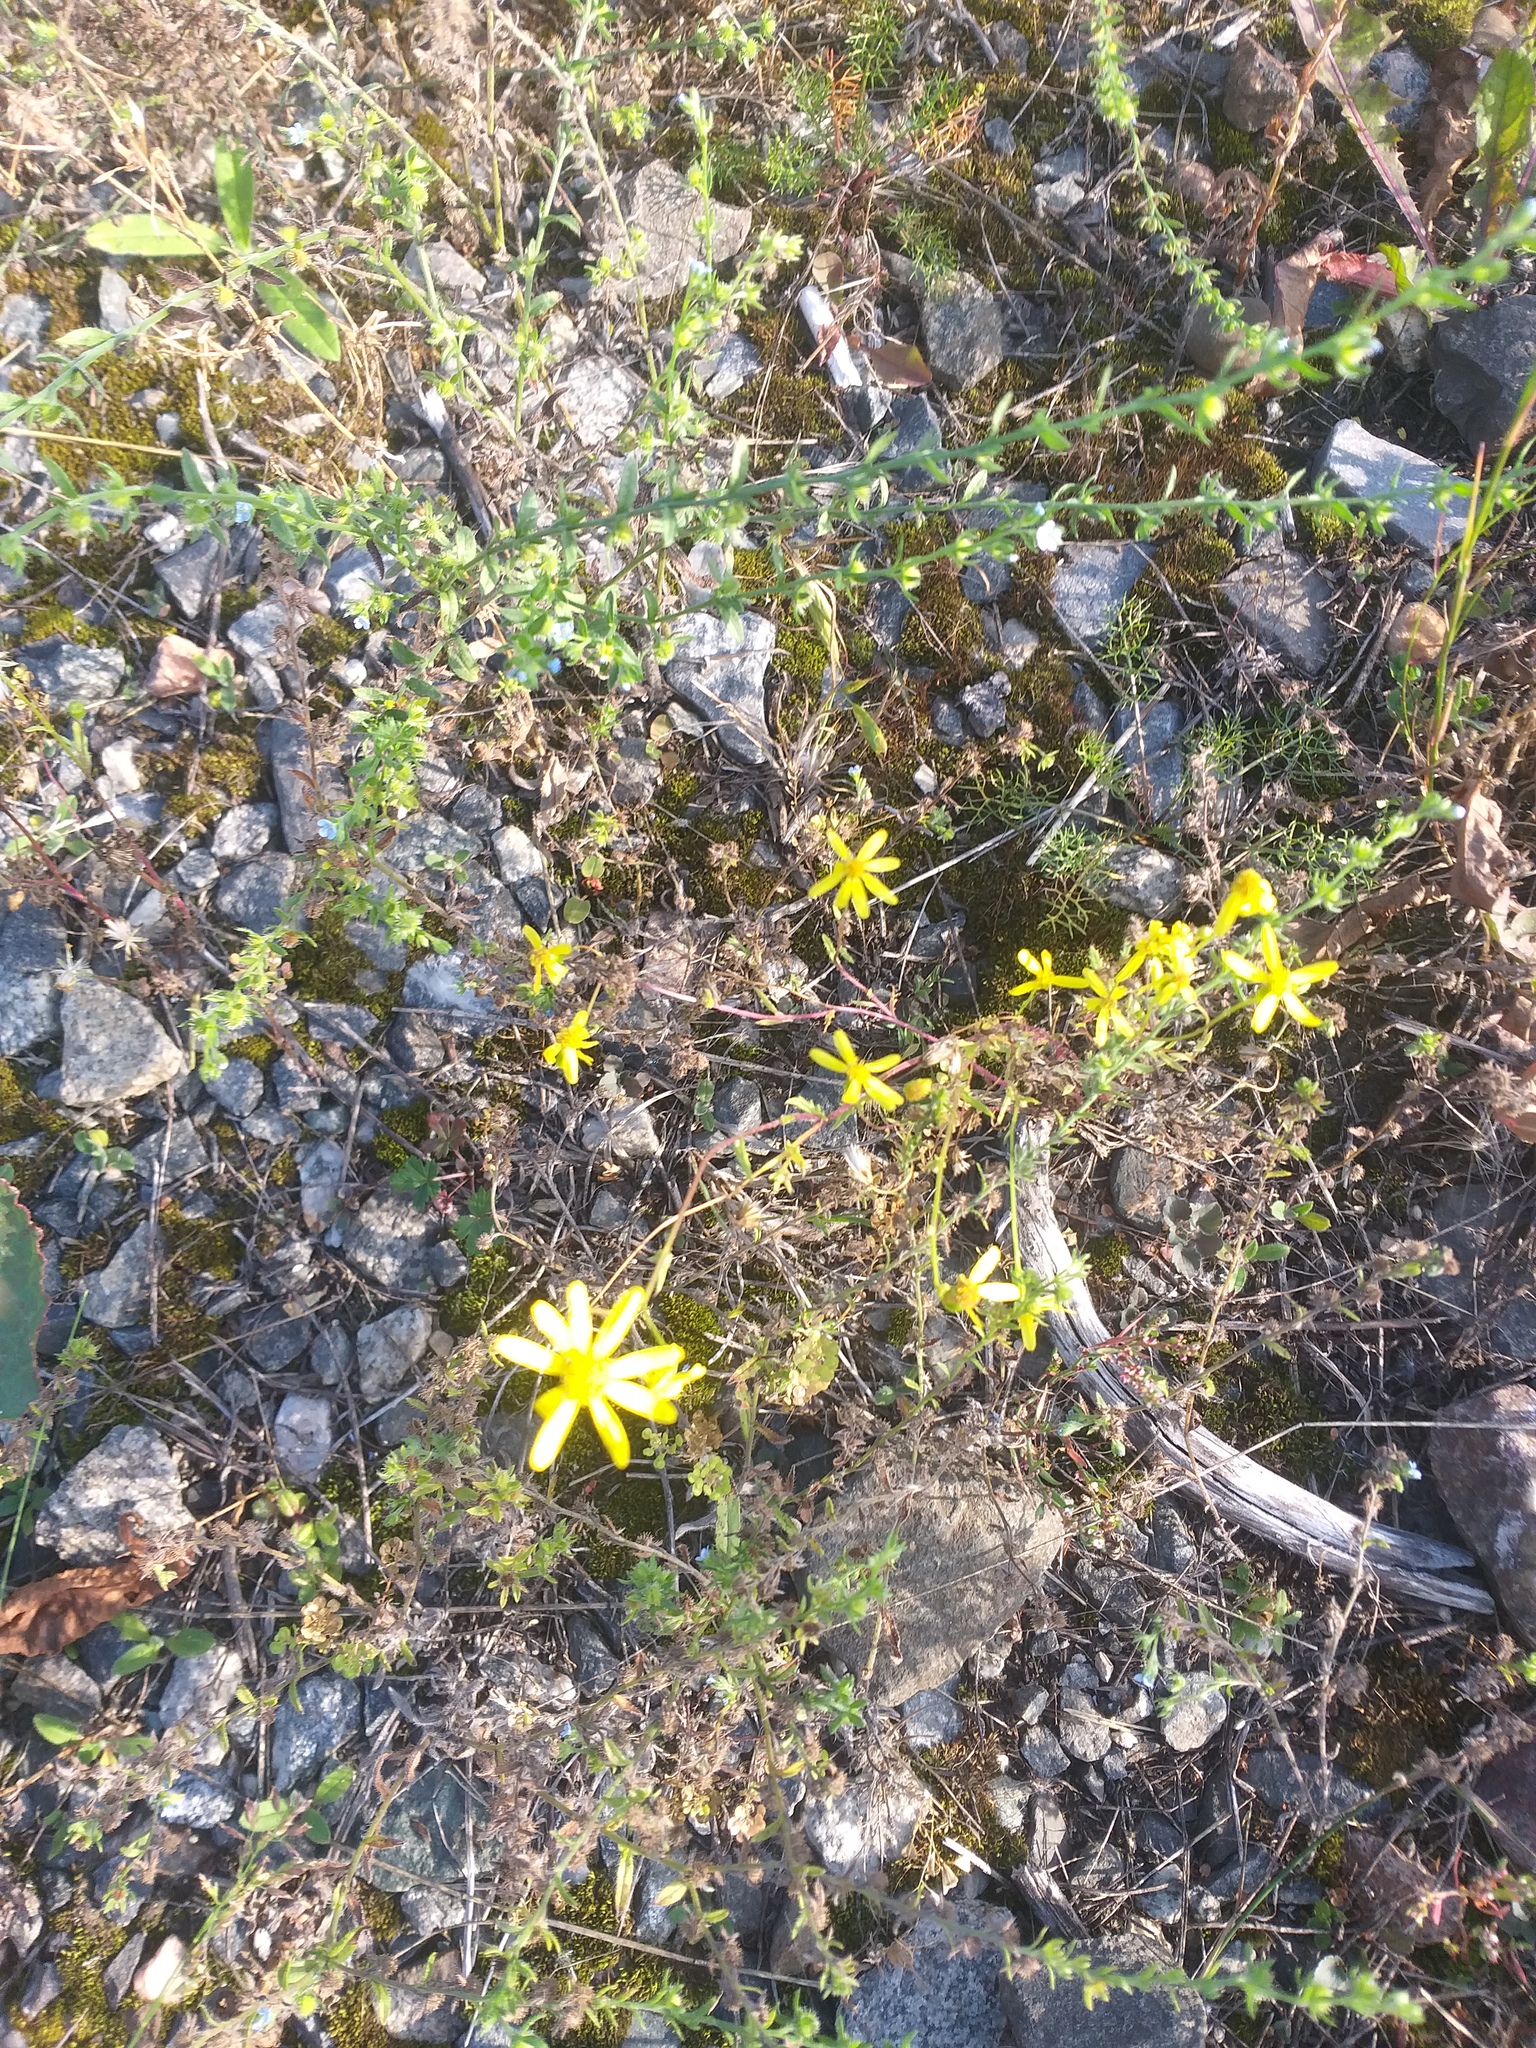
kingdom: Plantae
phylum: Tracheophyta
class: Magnoliopsida
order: Asterales
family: Asteraceae
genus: Senecio
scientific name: Senecio vernalis
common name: Eastern groundsel
